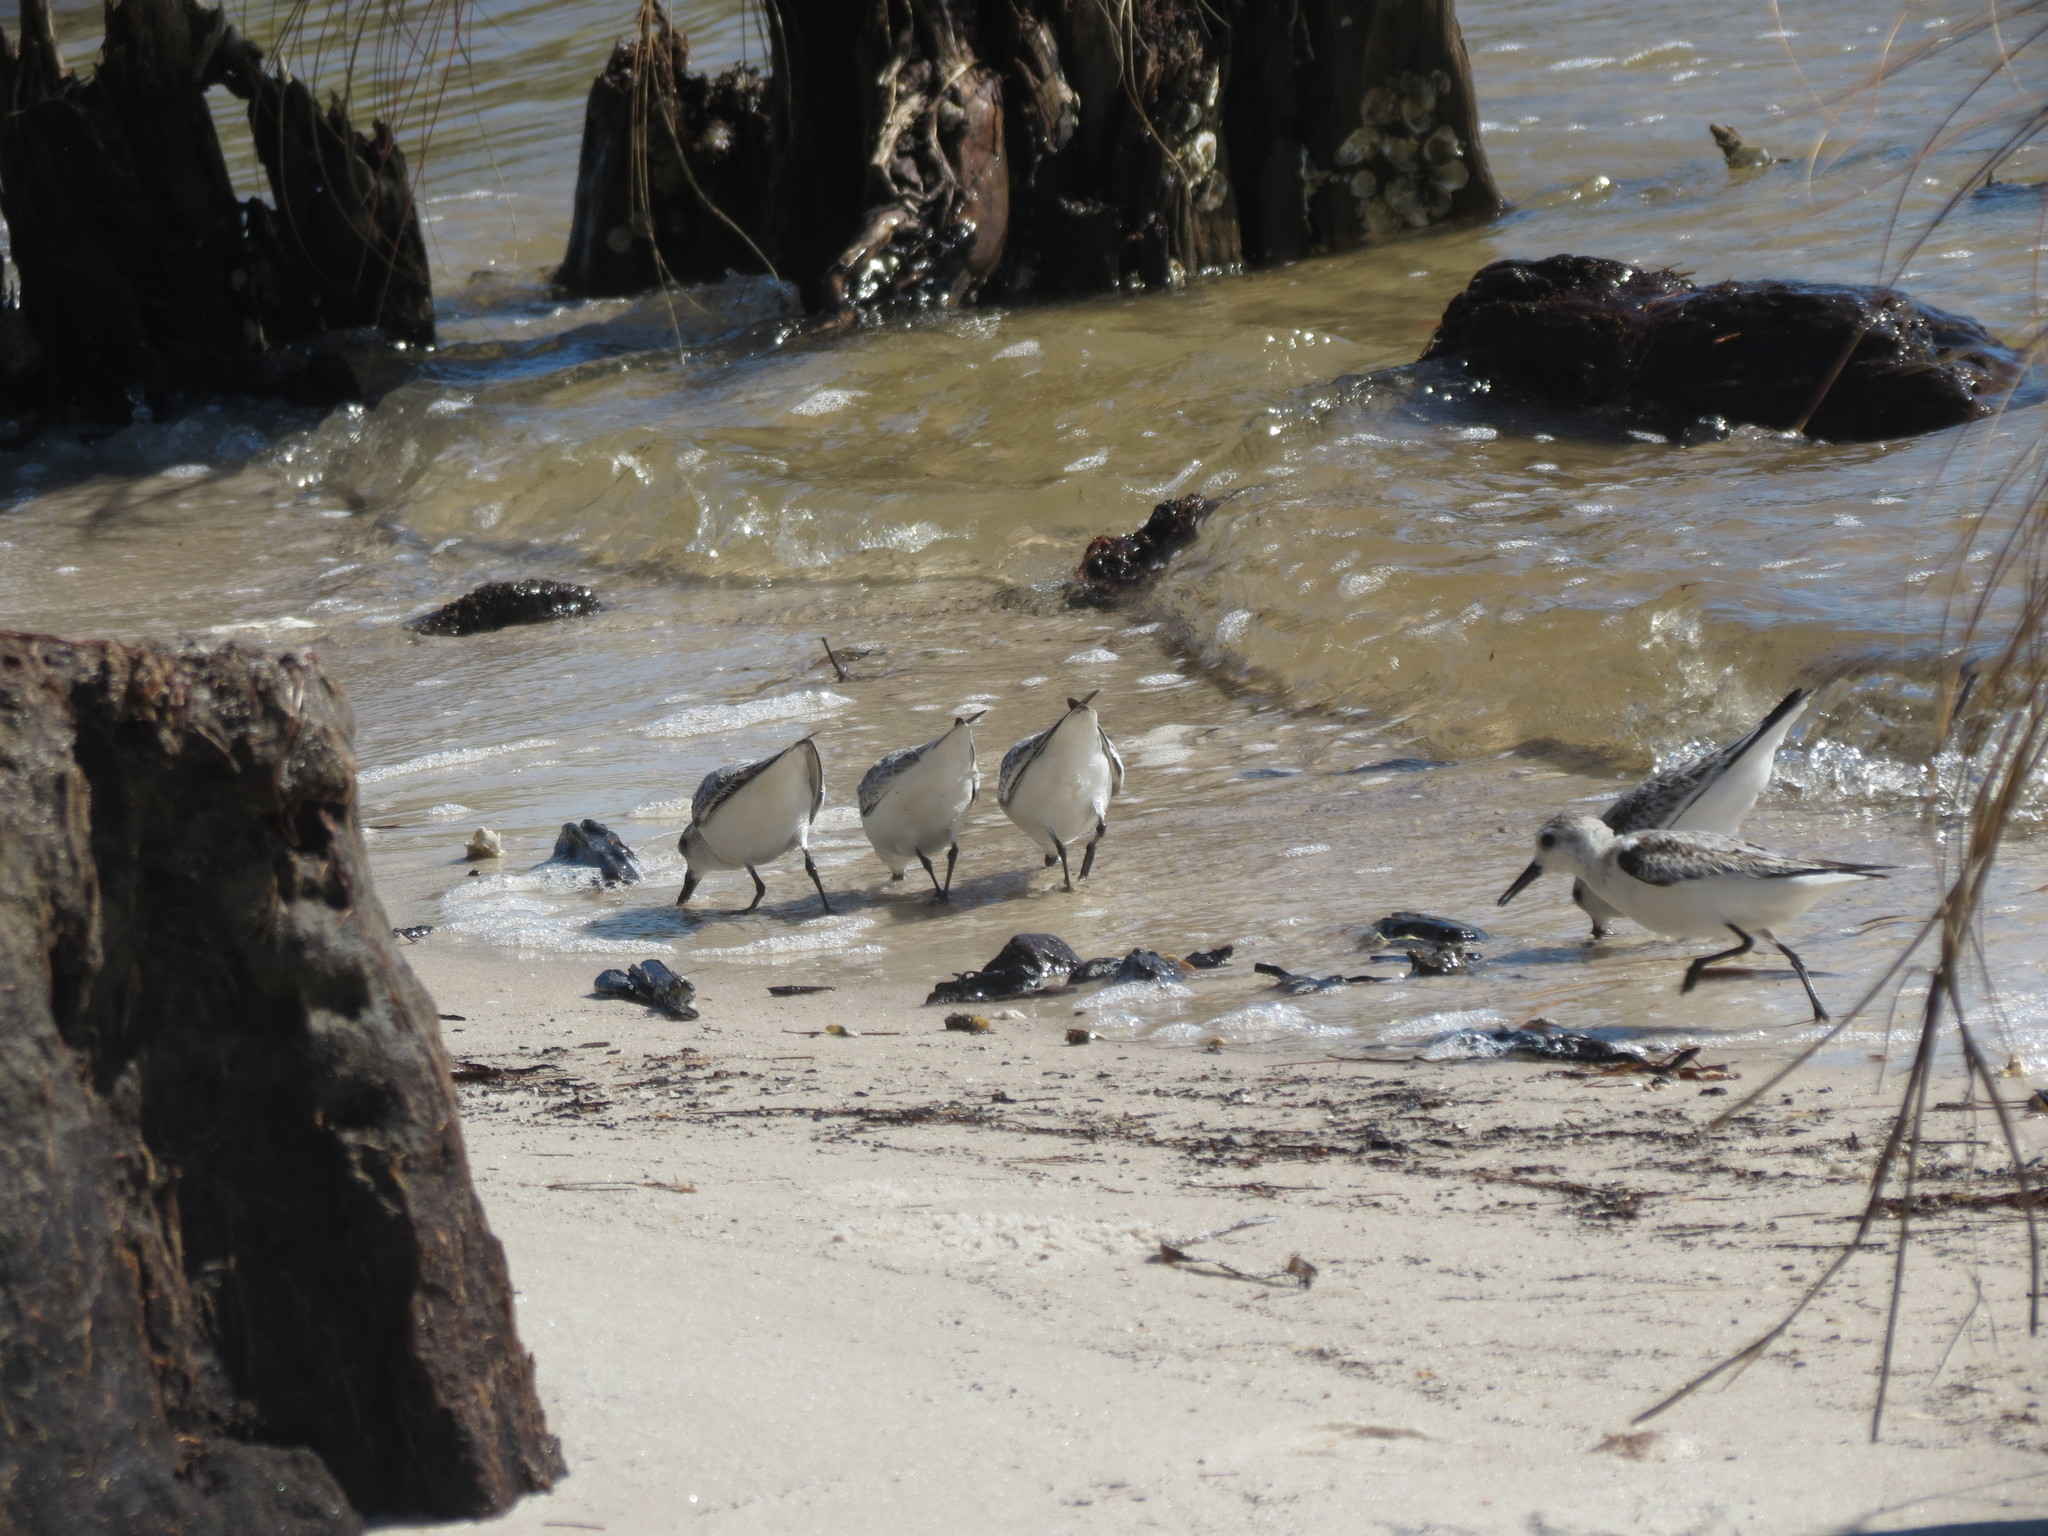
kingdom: Animalia
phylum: Chordata
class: Aves
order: Charadriiformes
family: Scolopacidae
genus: Calidris
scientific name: Calidris alba
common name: Sanderling
